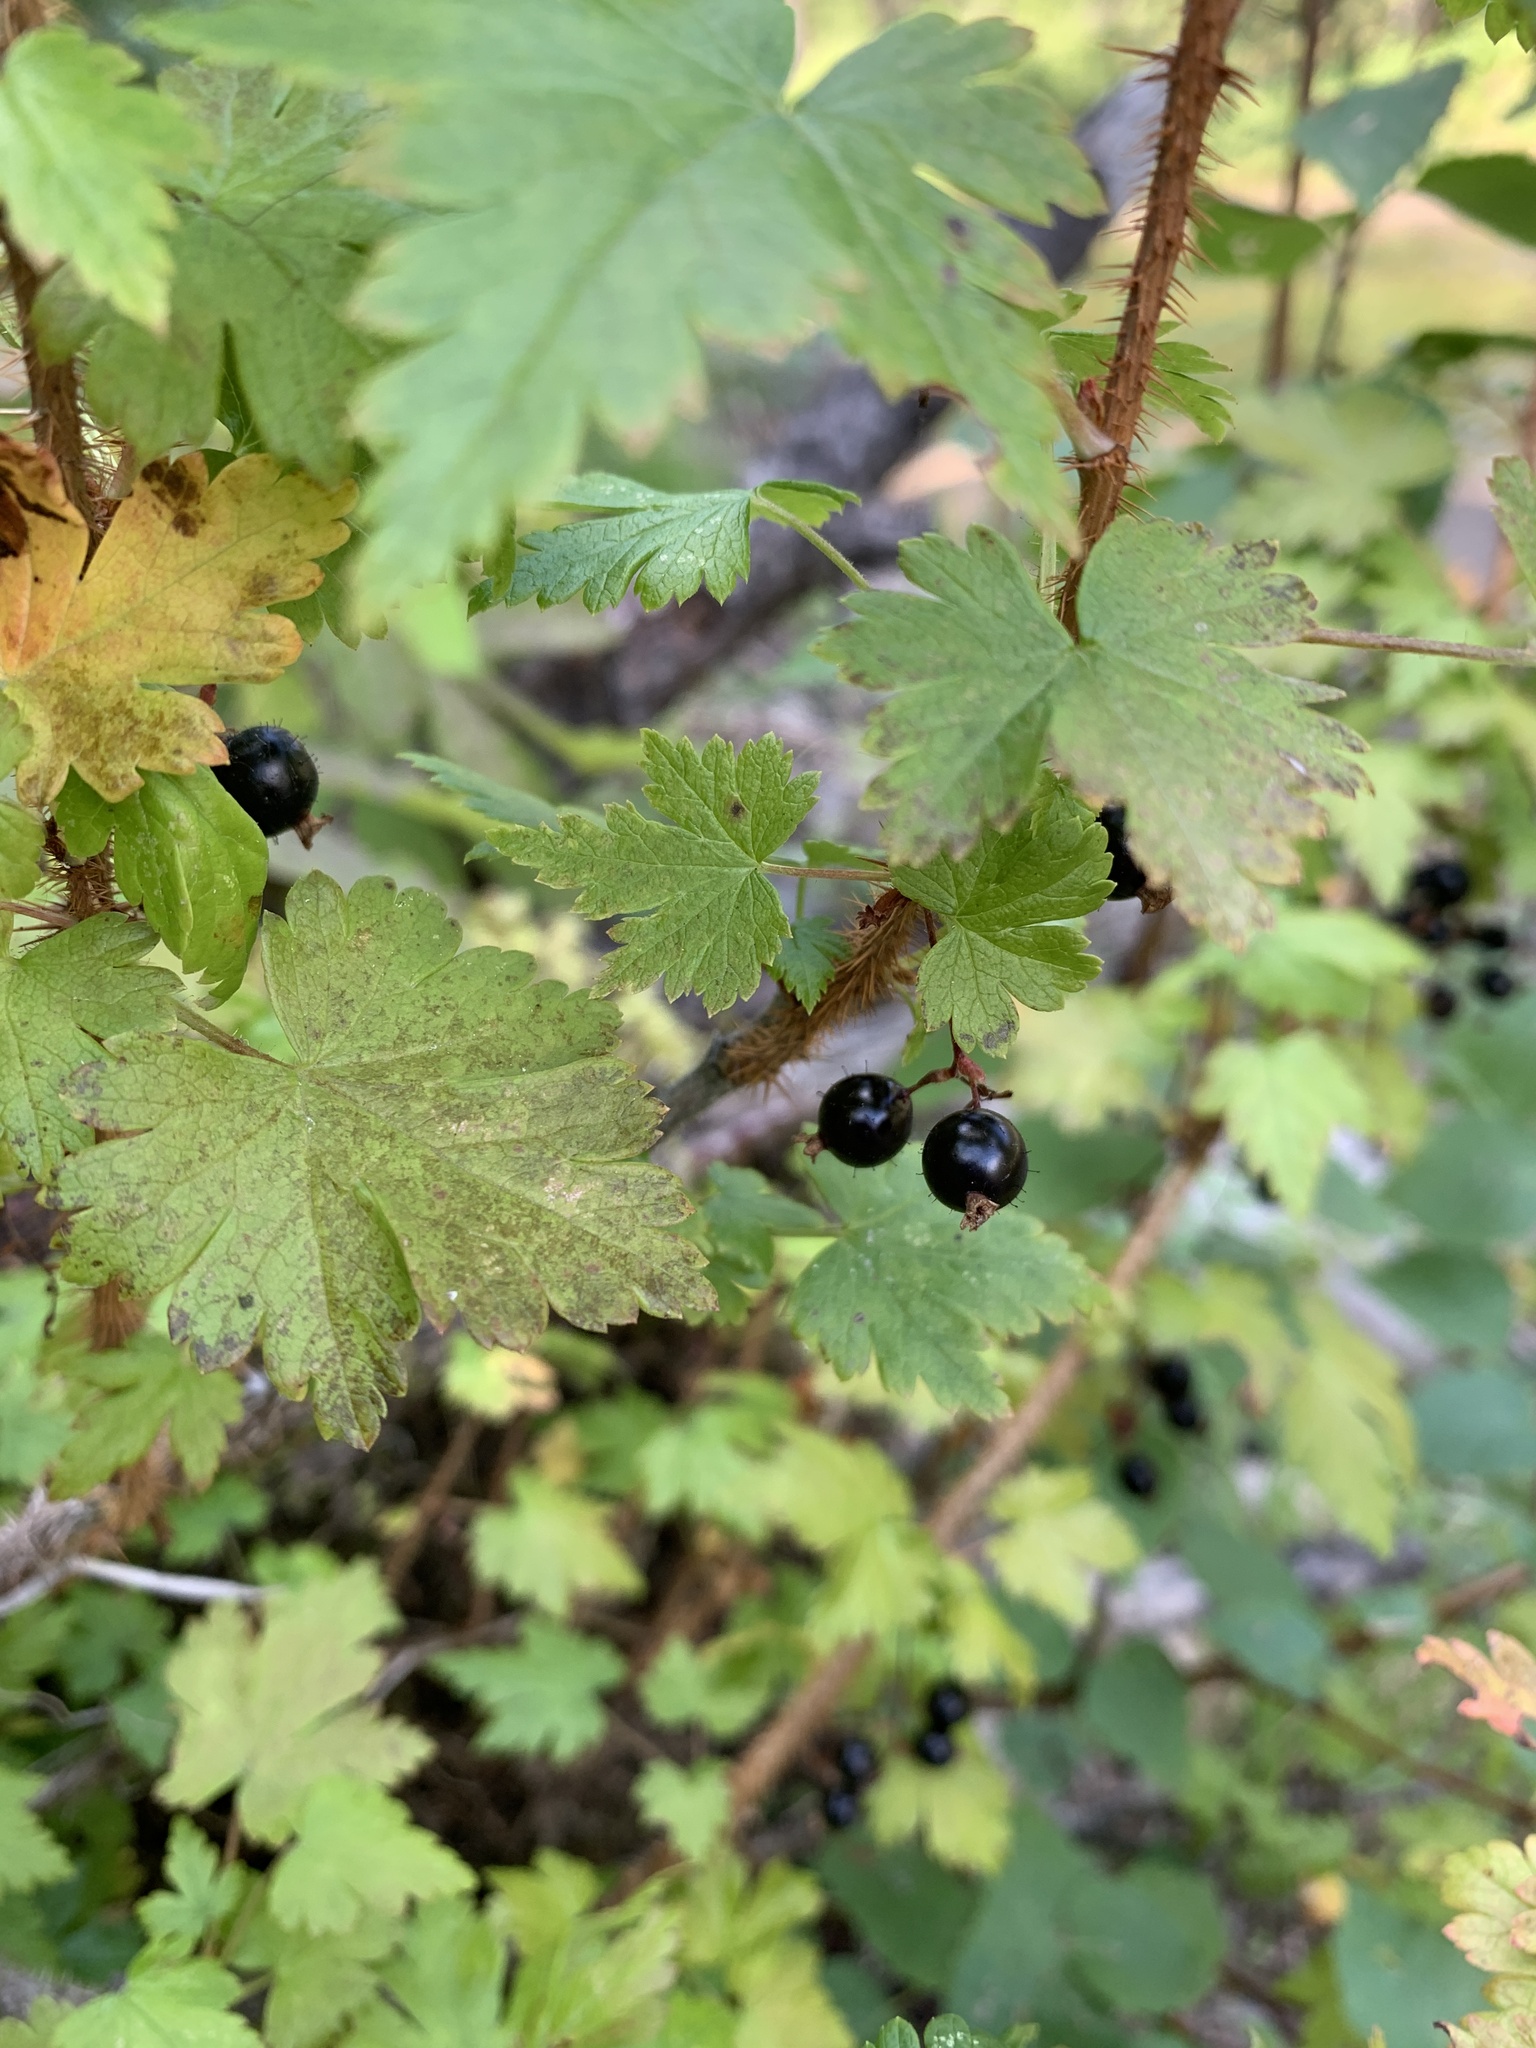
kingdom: Plantae
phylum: Tracheophyta
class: Magnoliopsida
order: Saxifragales
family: Grossulariaceae
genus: Ribes
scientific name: Ribes lacustre
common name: Black gooseberry
